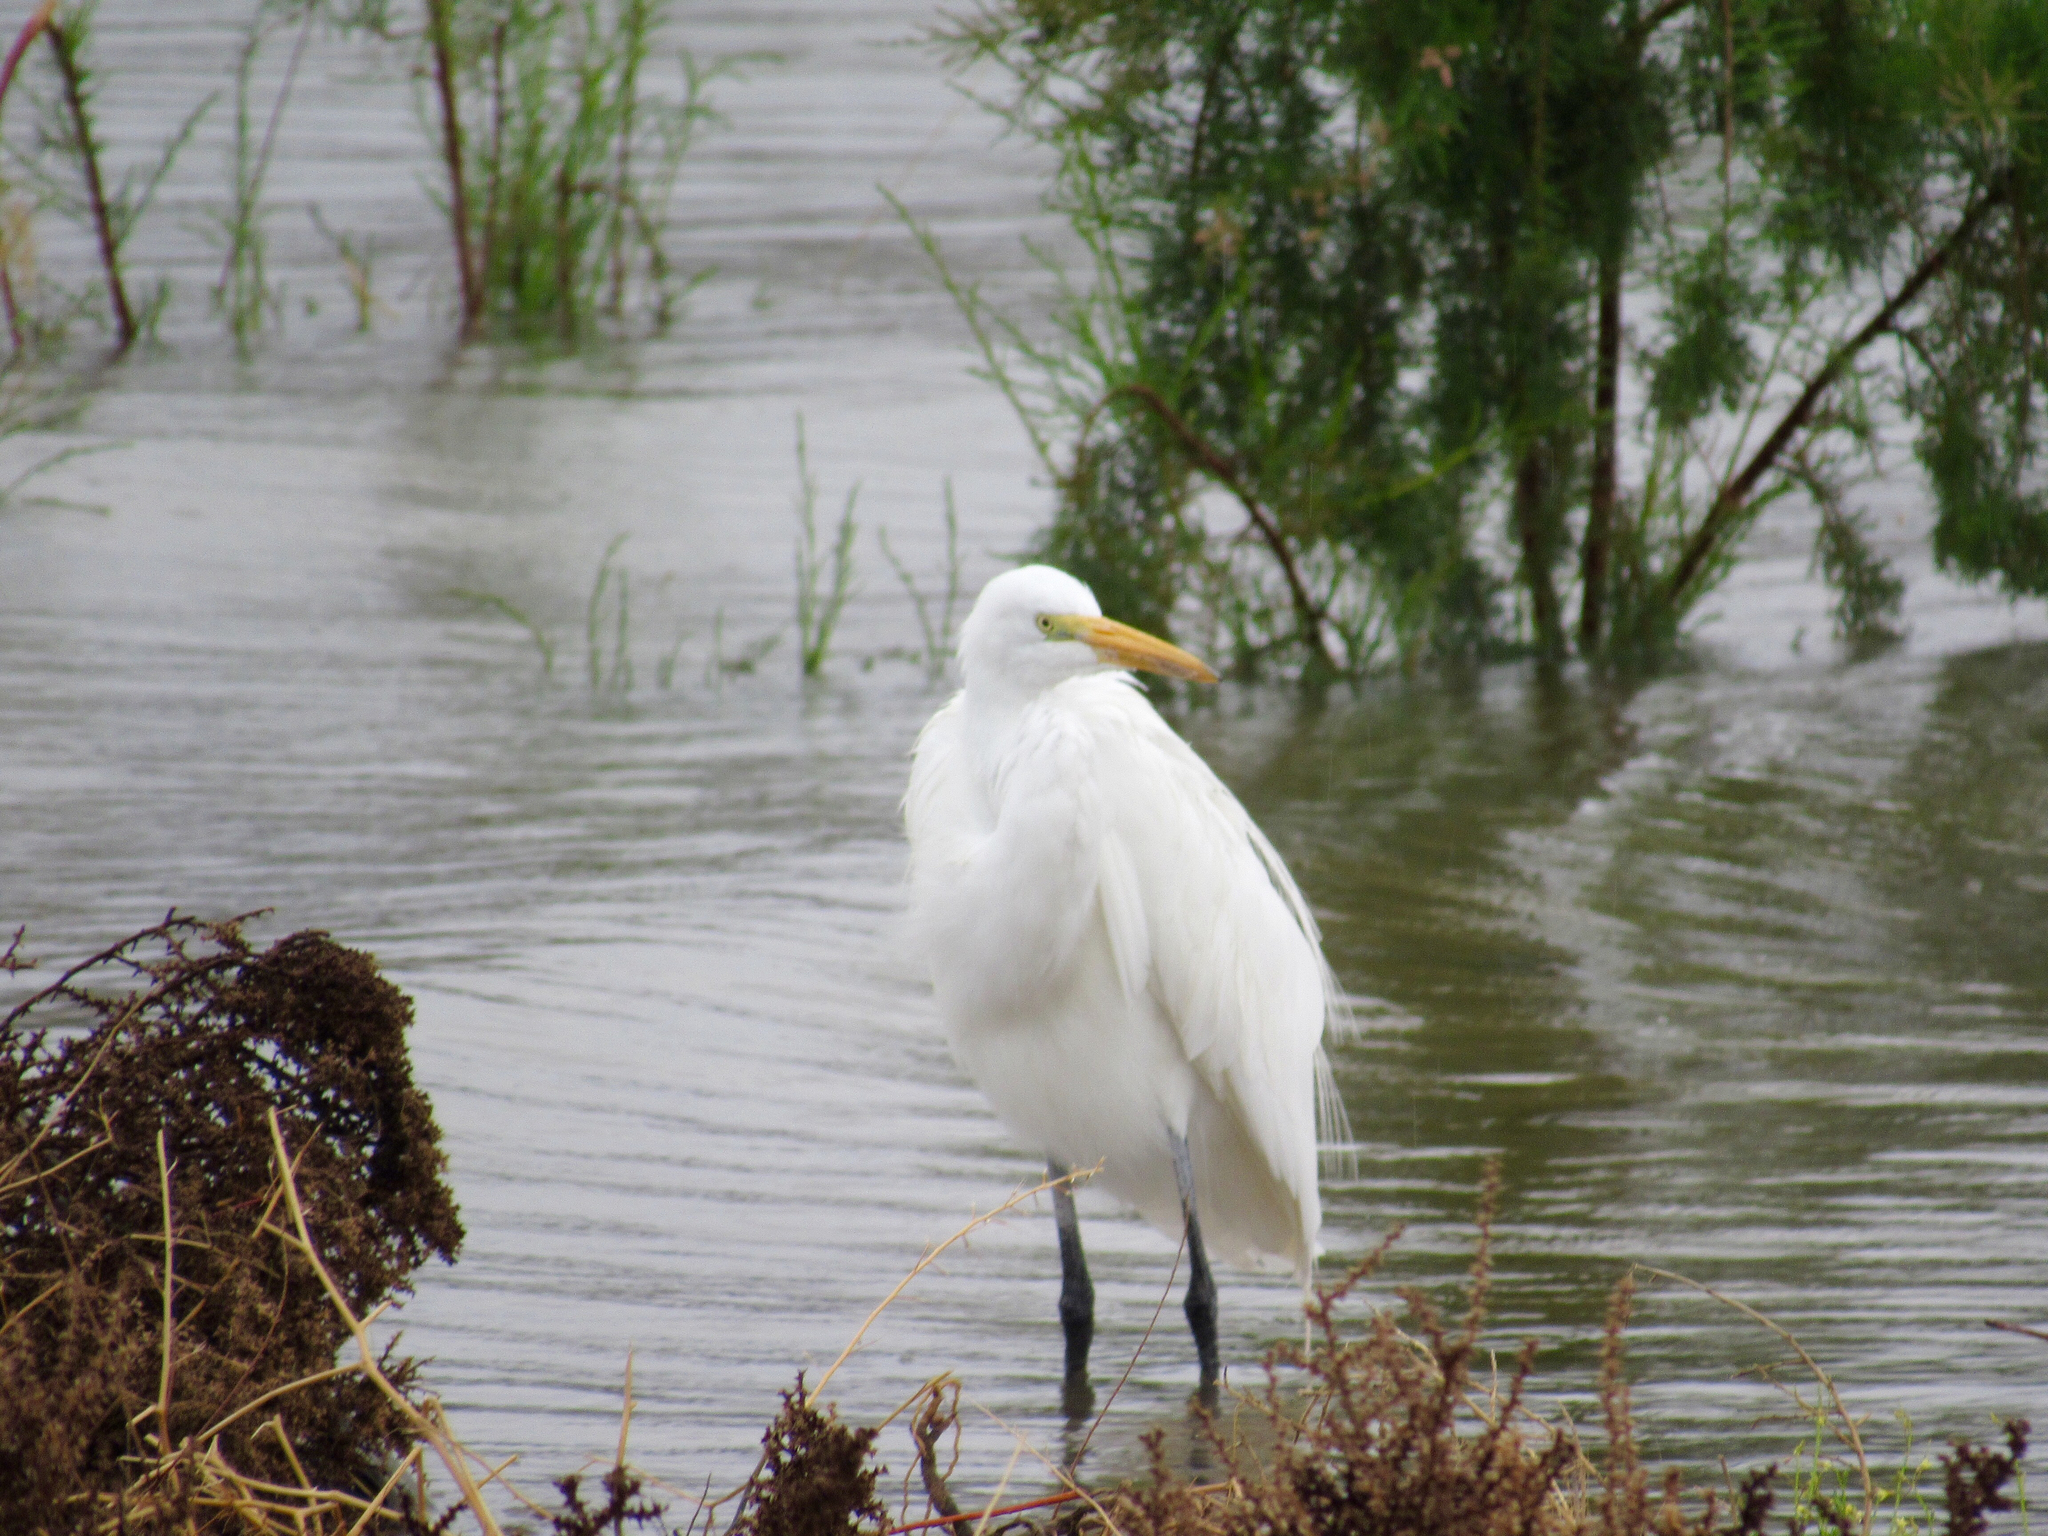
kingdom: Animalia
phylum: Chordata
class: Aves
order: Pelecaniformes
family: Ardeidae
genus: Ardea
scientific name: Ardea alba
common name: Great egret
